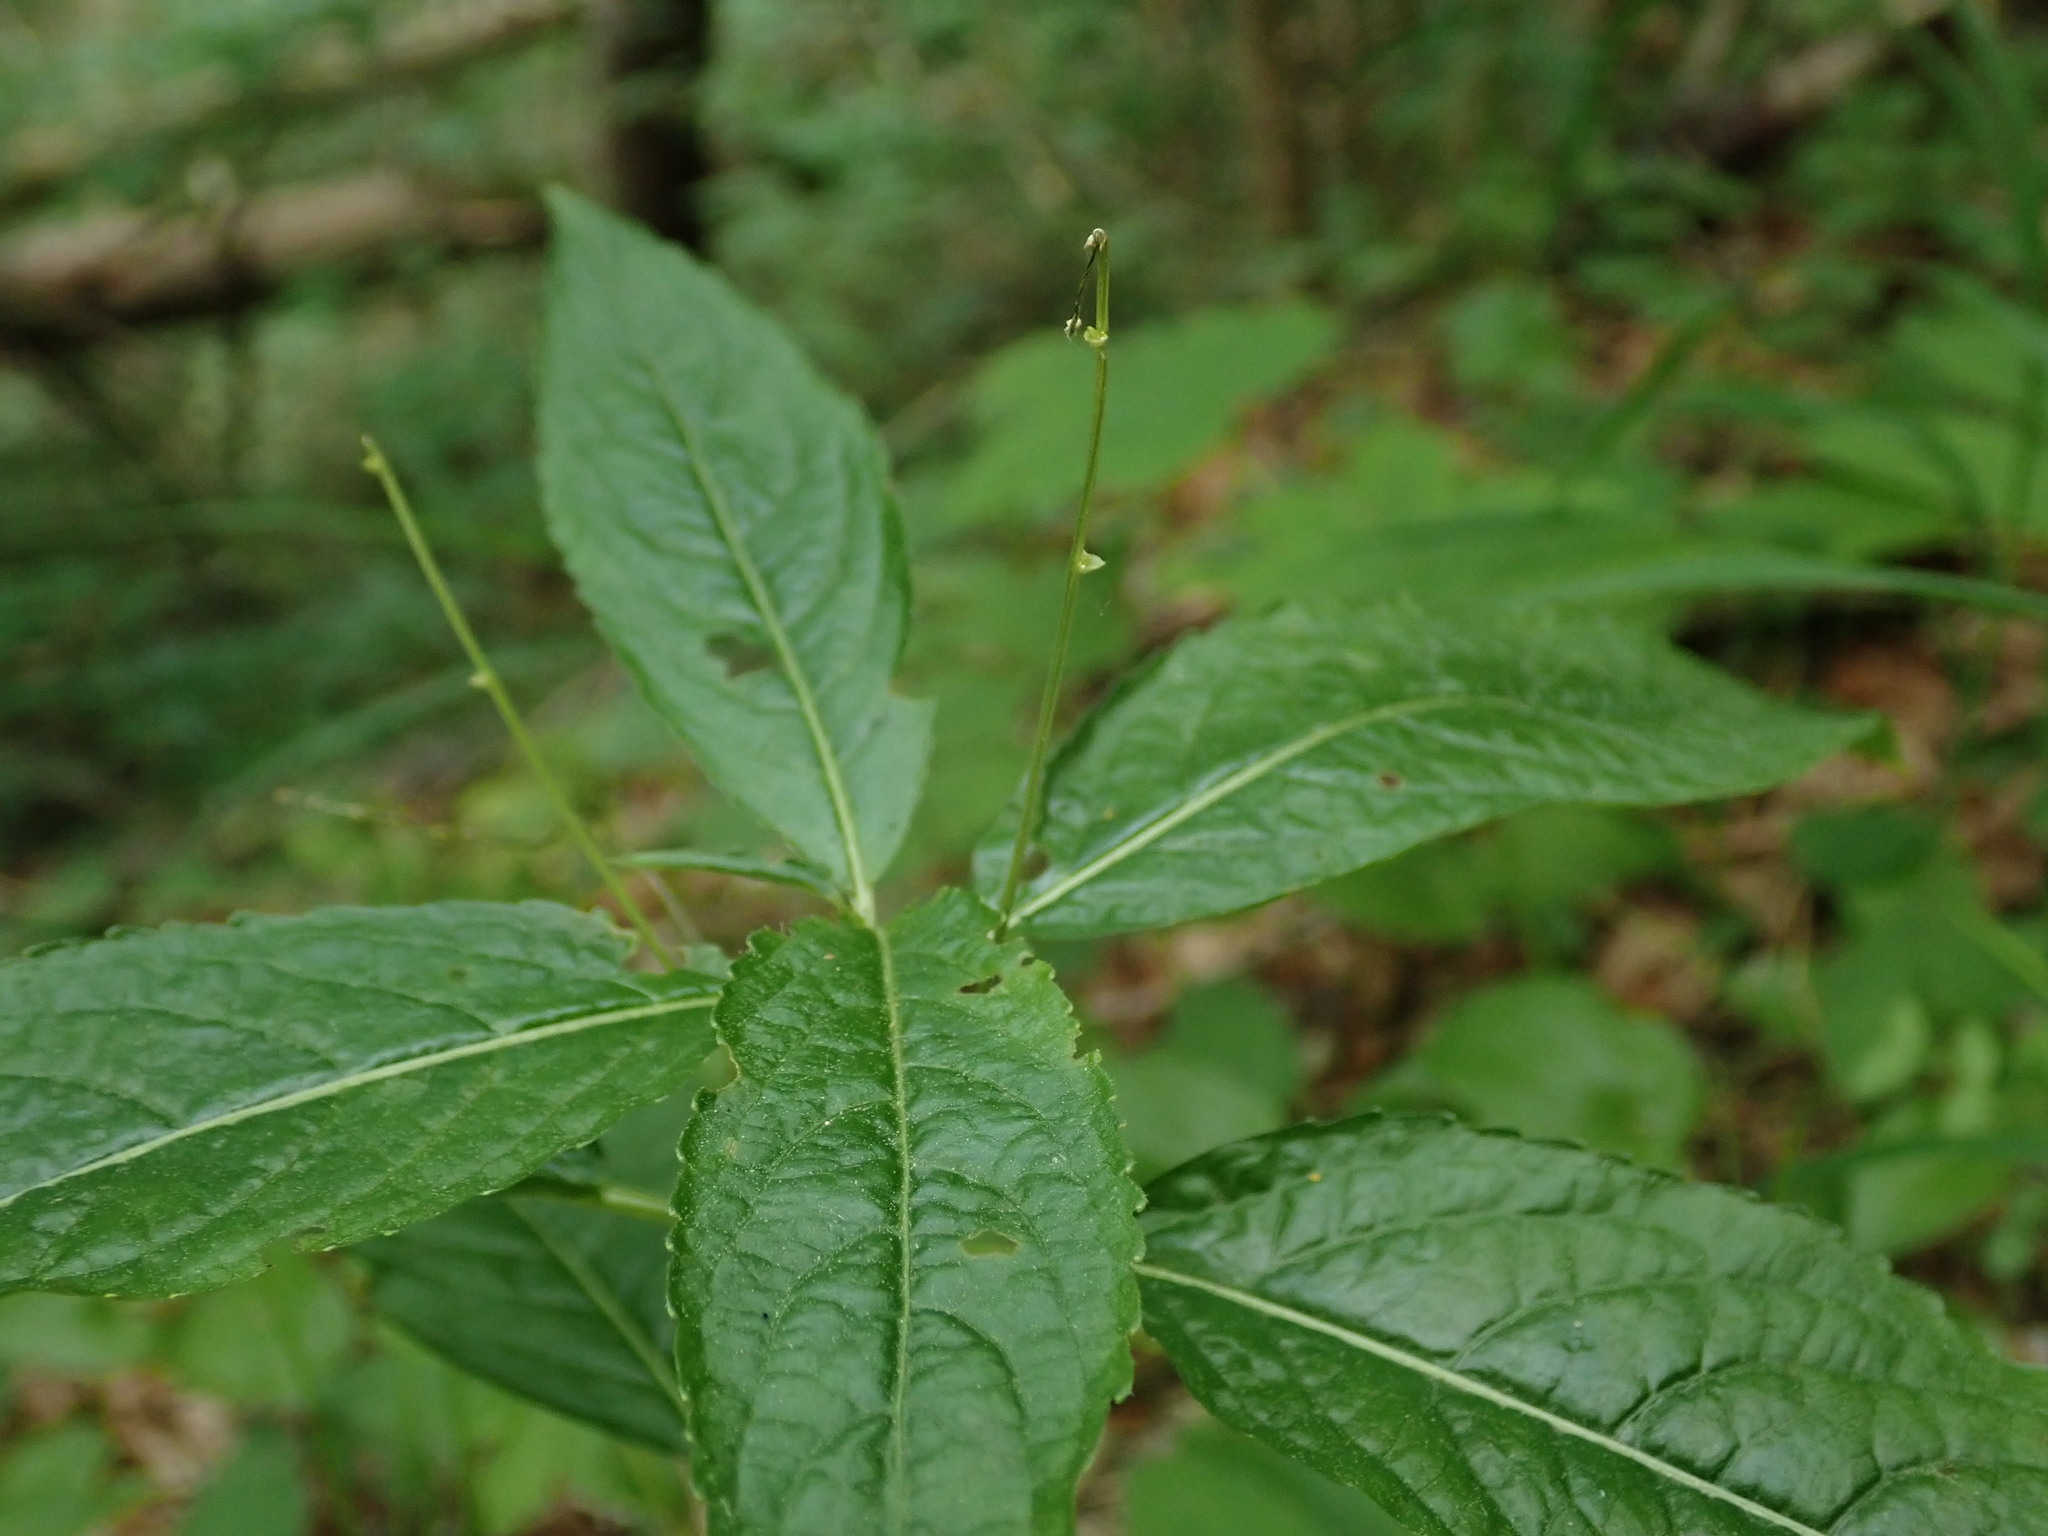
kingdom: Plantae
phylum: Tracheophyta
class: Magnoliopsida
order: Malpighiales
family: Euphorbiaceae
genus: Mercurialis
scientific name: Mercurialis perennis
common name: Dog mercury
